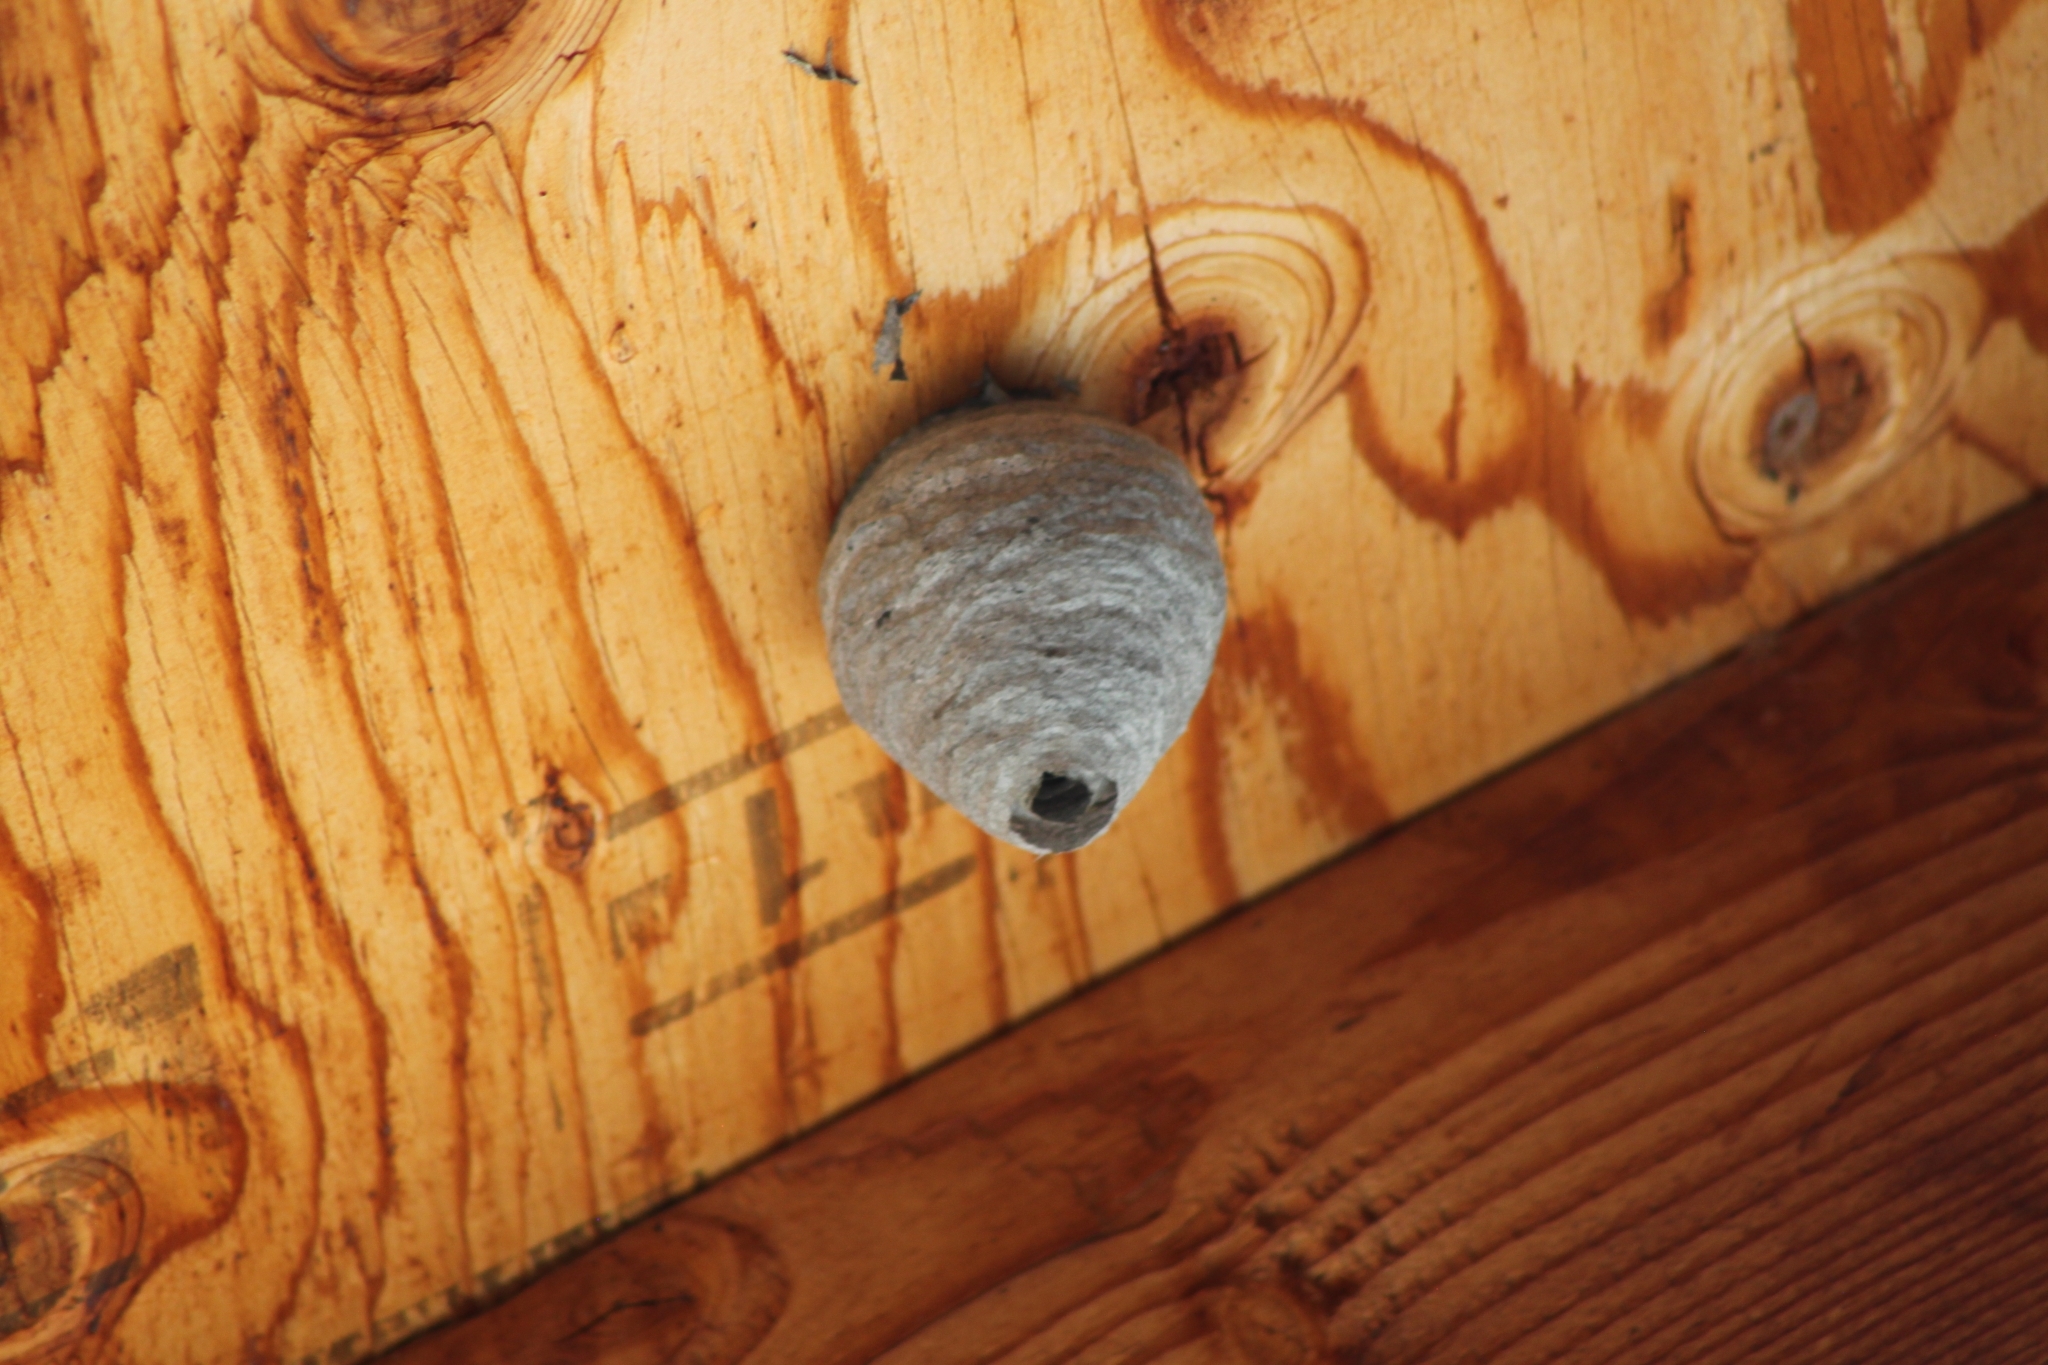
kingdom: Animalia
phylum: Arthropoda
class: Insecta
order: Hymenoptera
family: Vespidae
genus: Dolichovespula
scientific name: Dolichovespula
